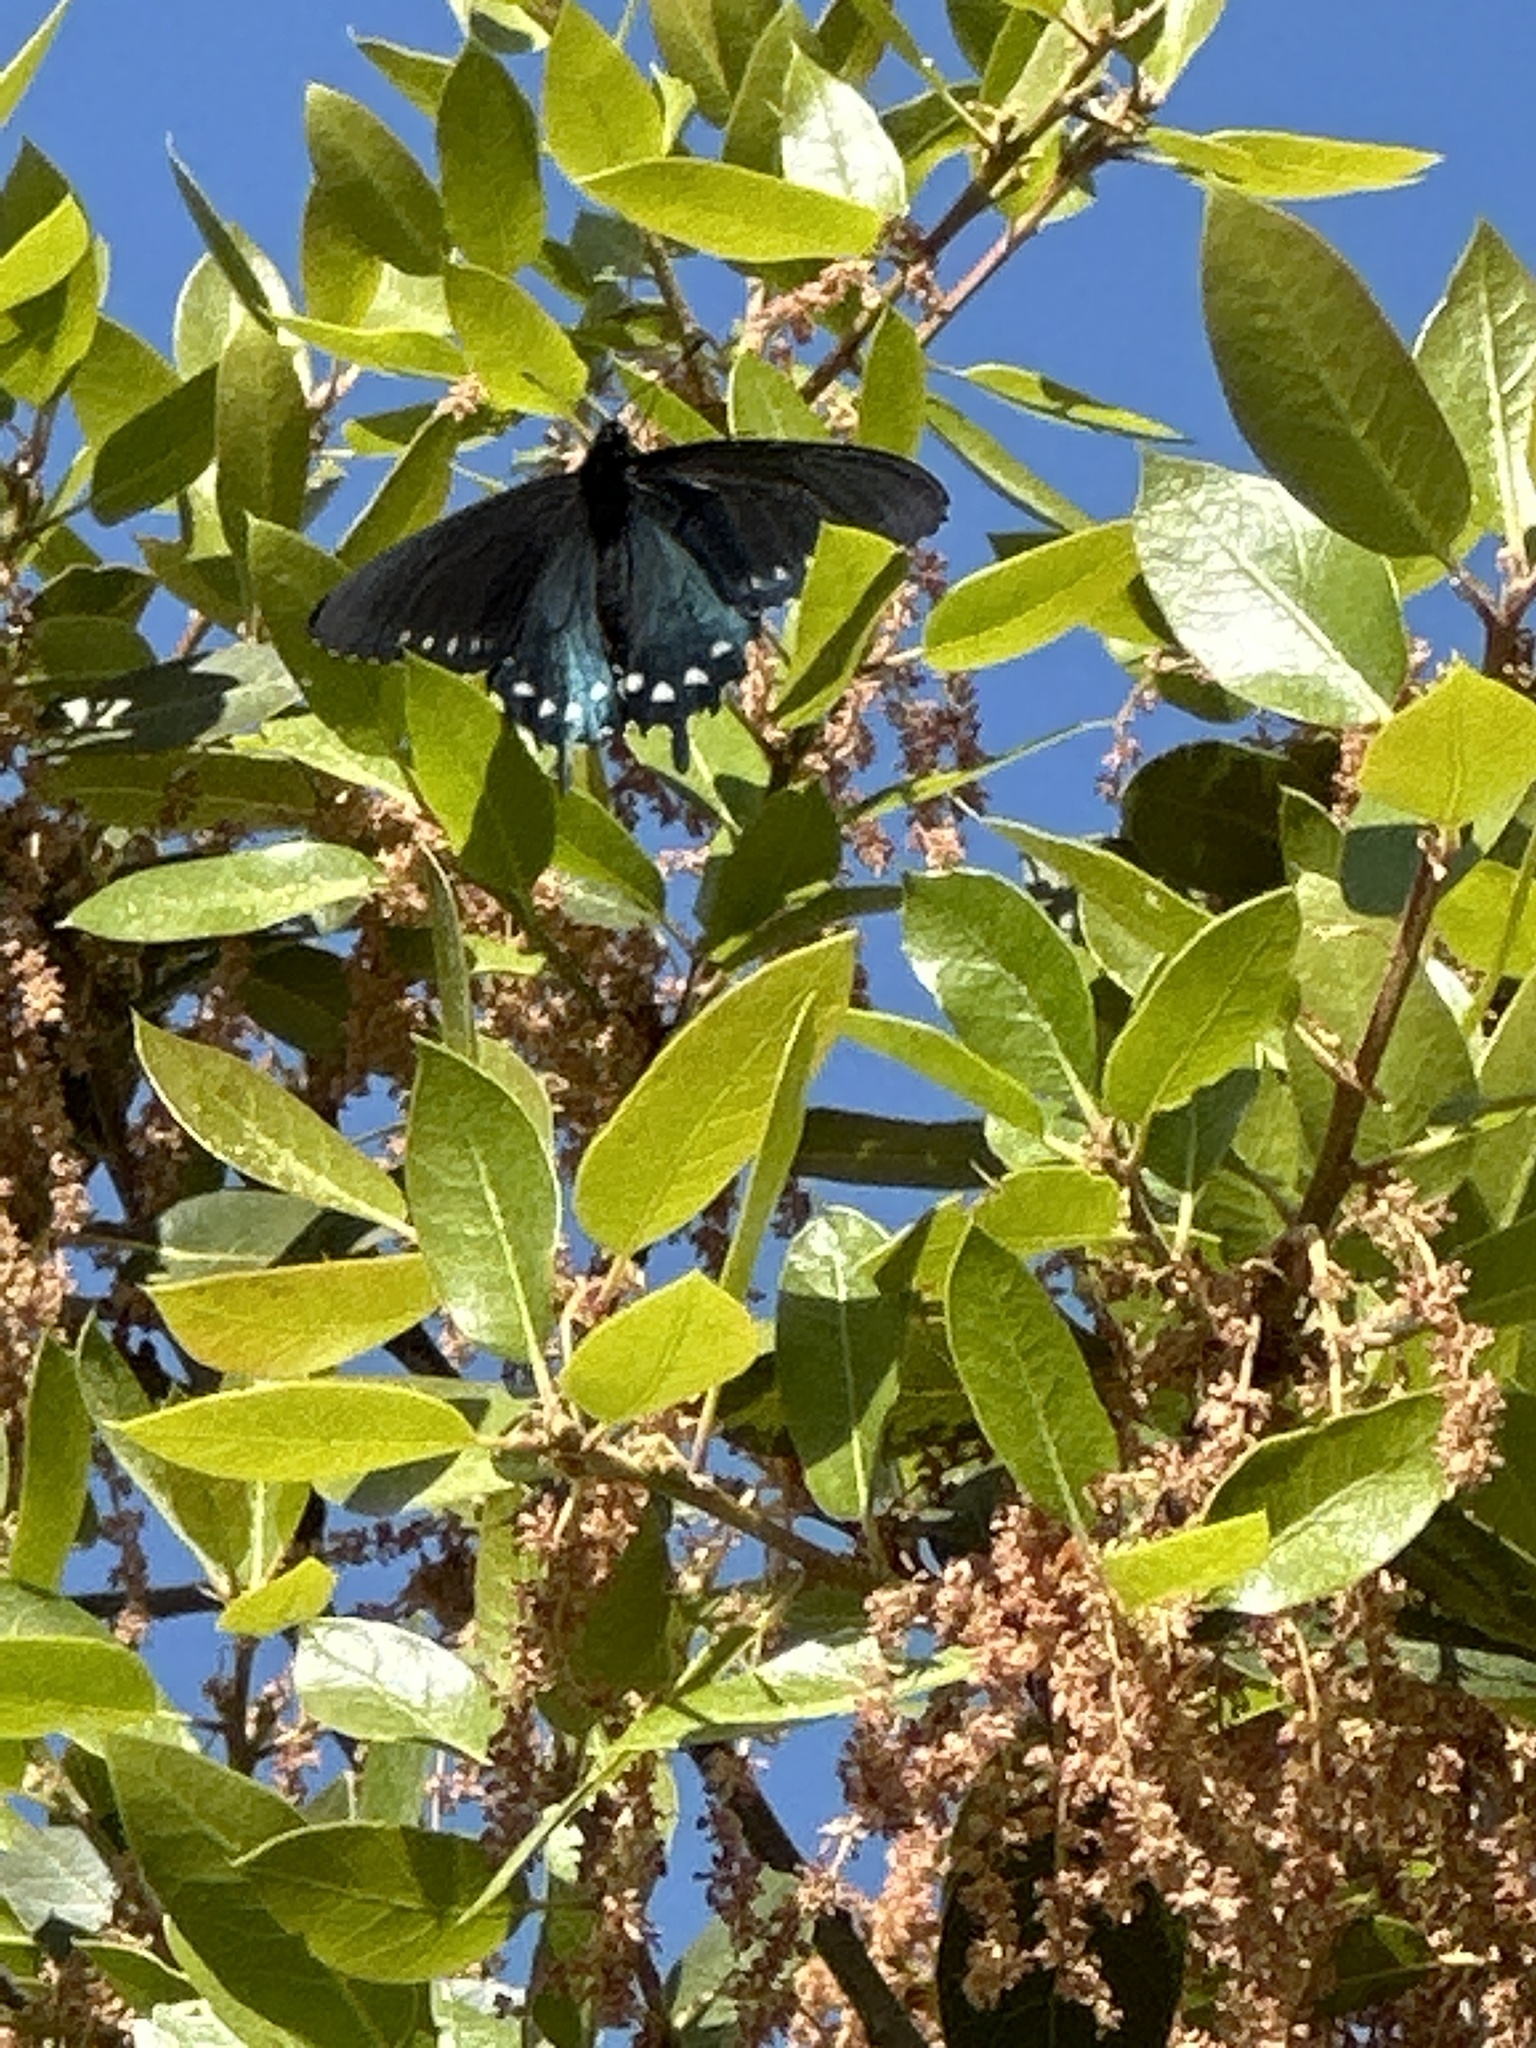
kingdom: Animalia
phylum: Arthropoda
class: Insecta
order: Lepidoptera
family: Papilionidae
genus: Battus
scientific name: Battus philenor
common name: Pipevine swallowtail
